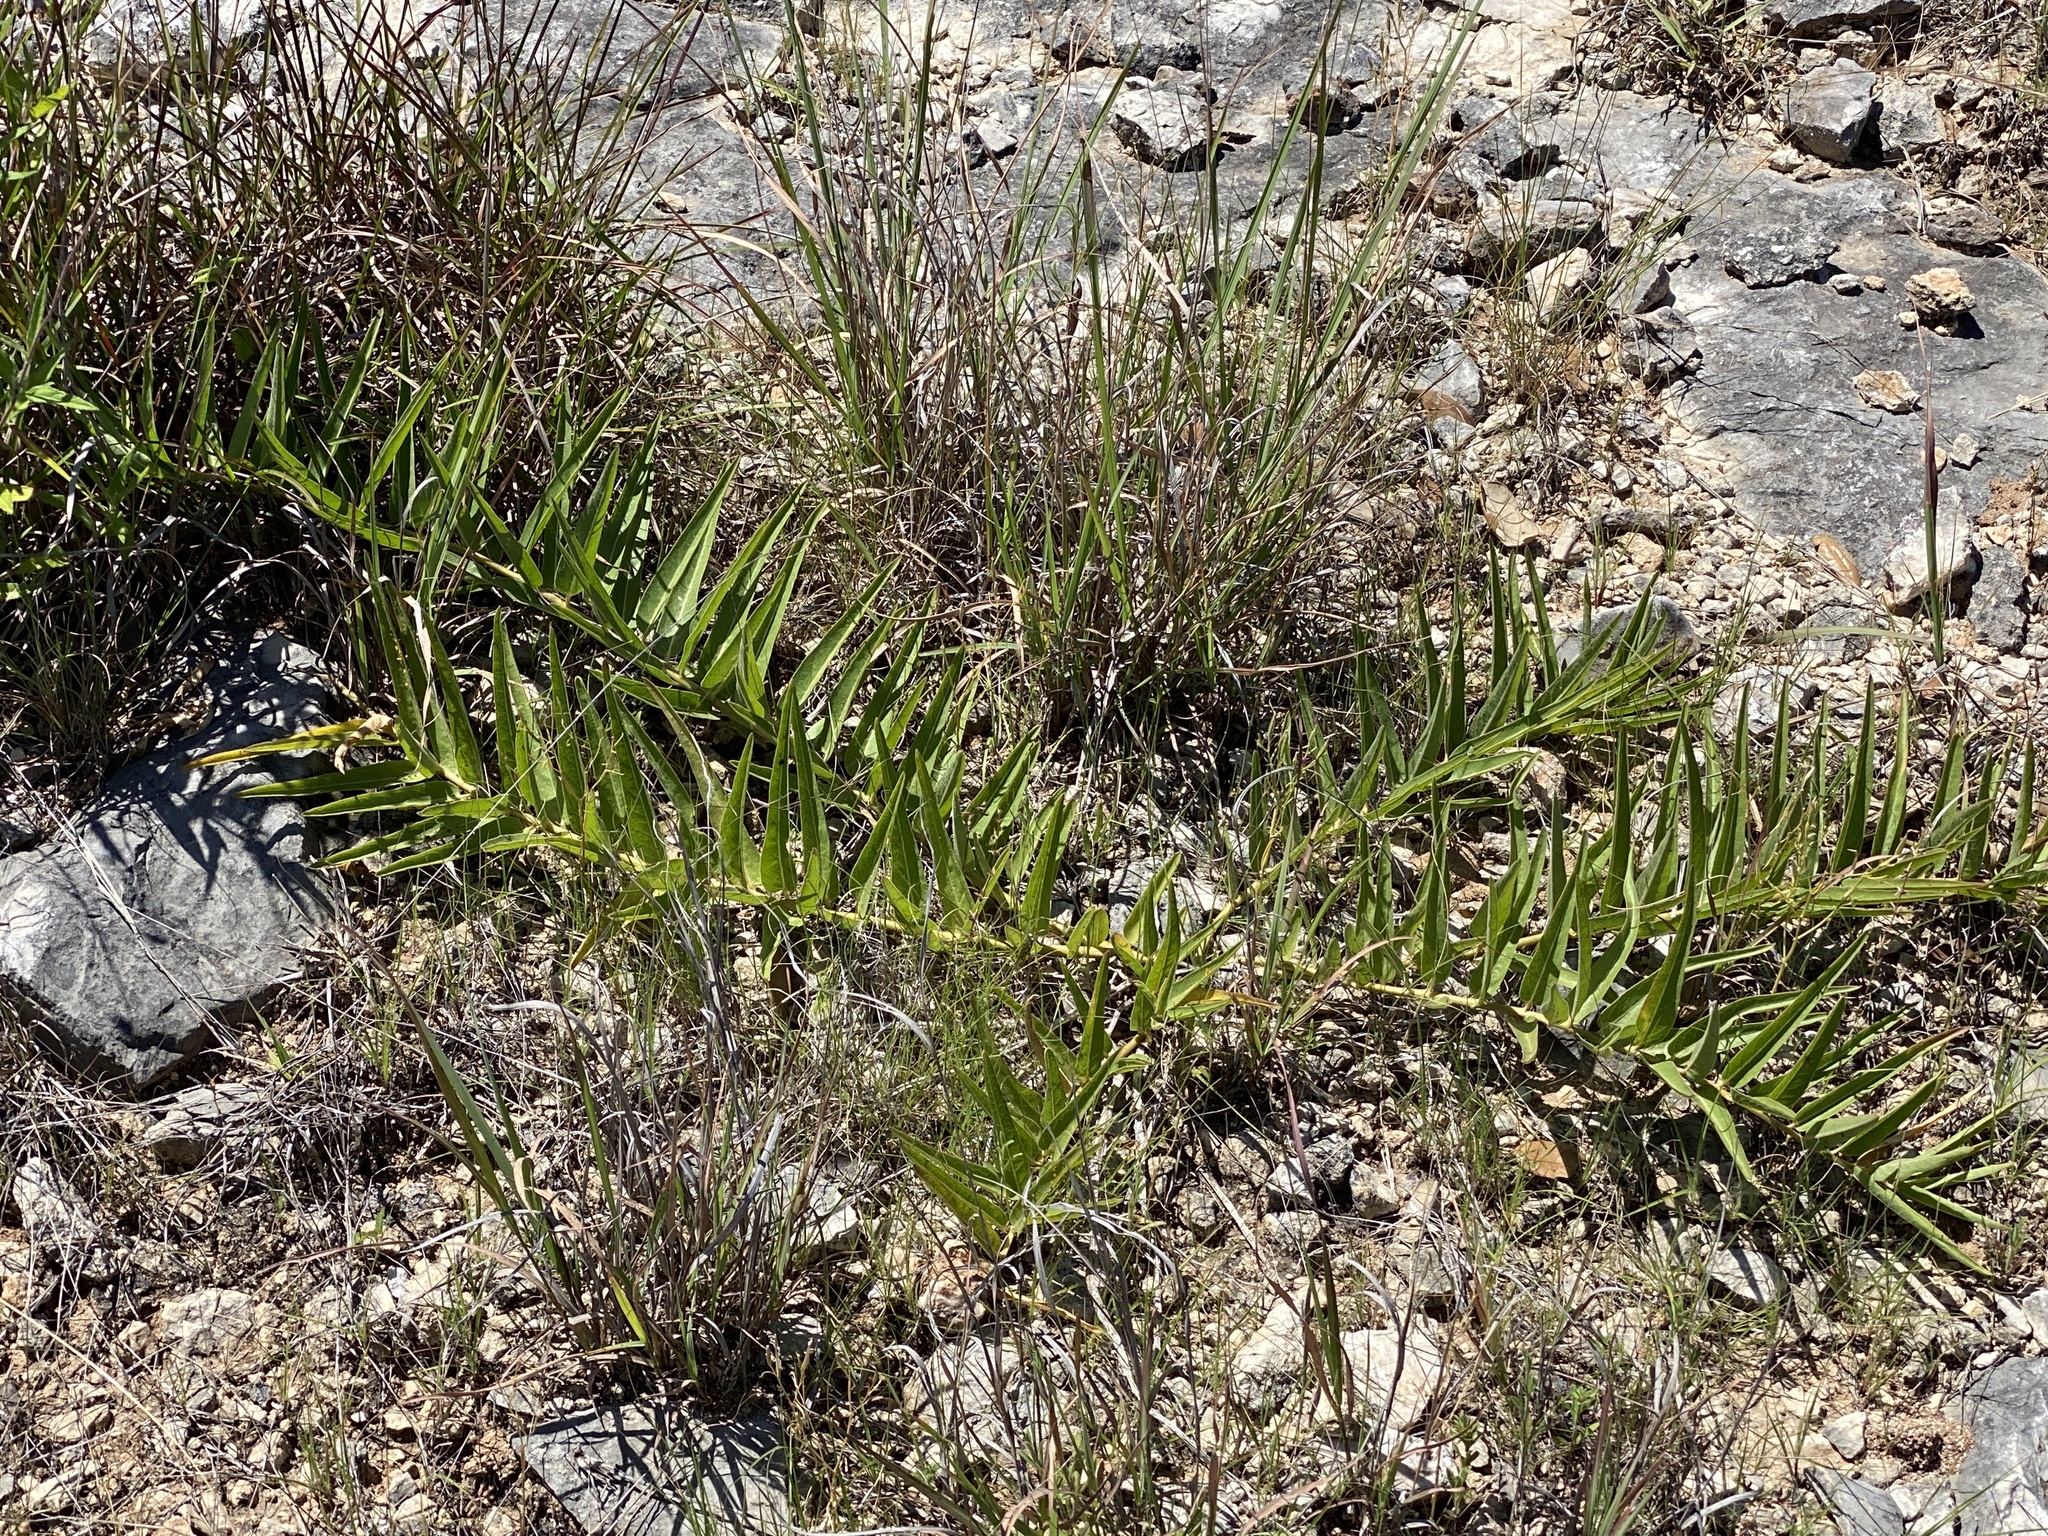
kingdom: Plantae
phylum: Tracheophyta
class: Magnoliopsida
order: Gentianales
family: Apocynaceae
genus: Asclepias
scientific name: Asclepias asperula
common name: Antelope horns
